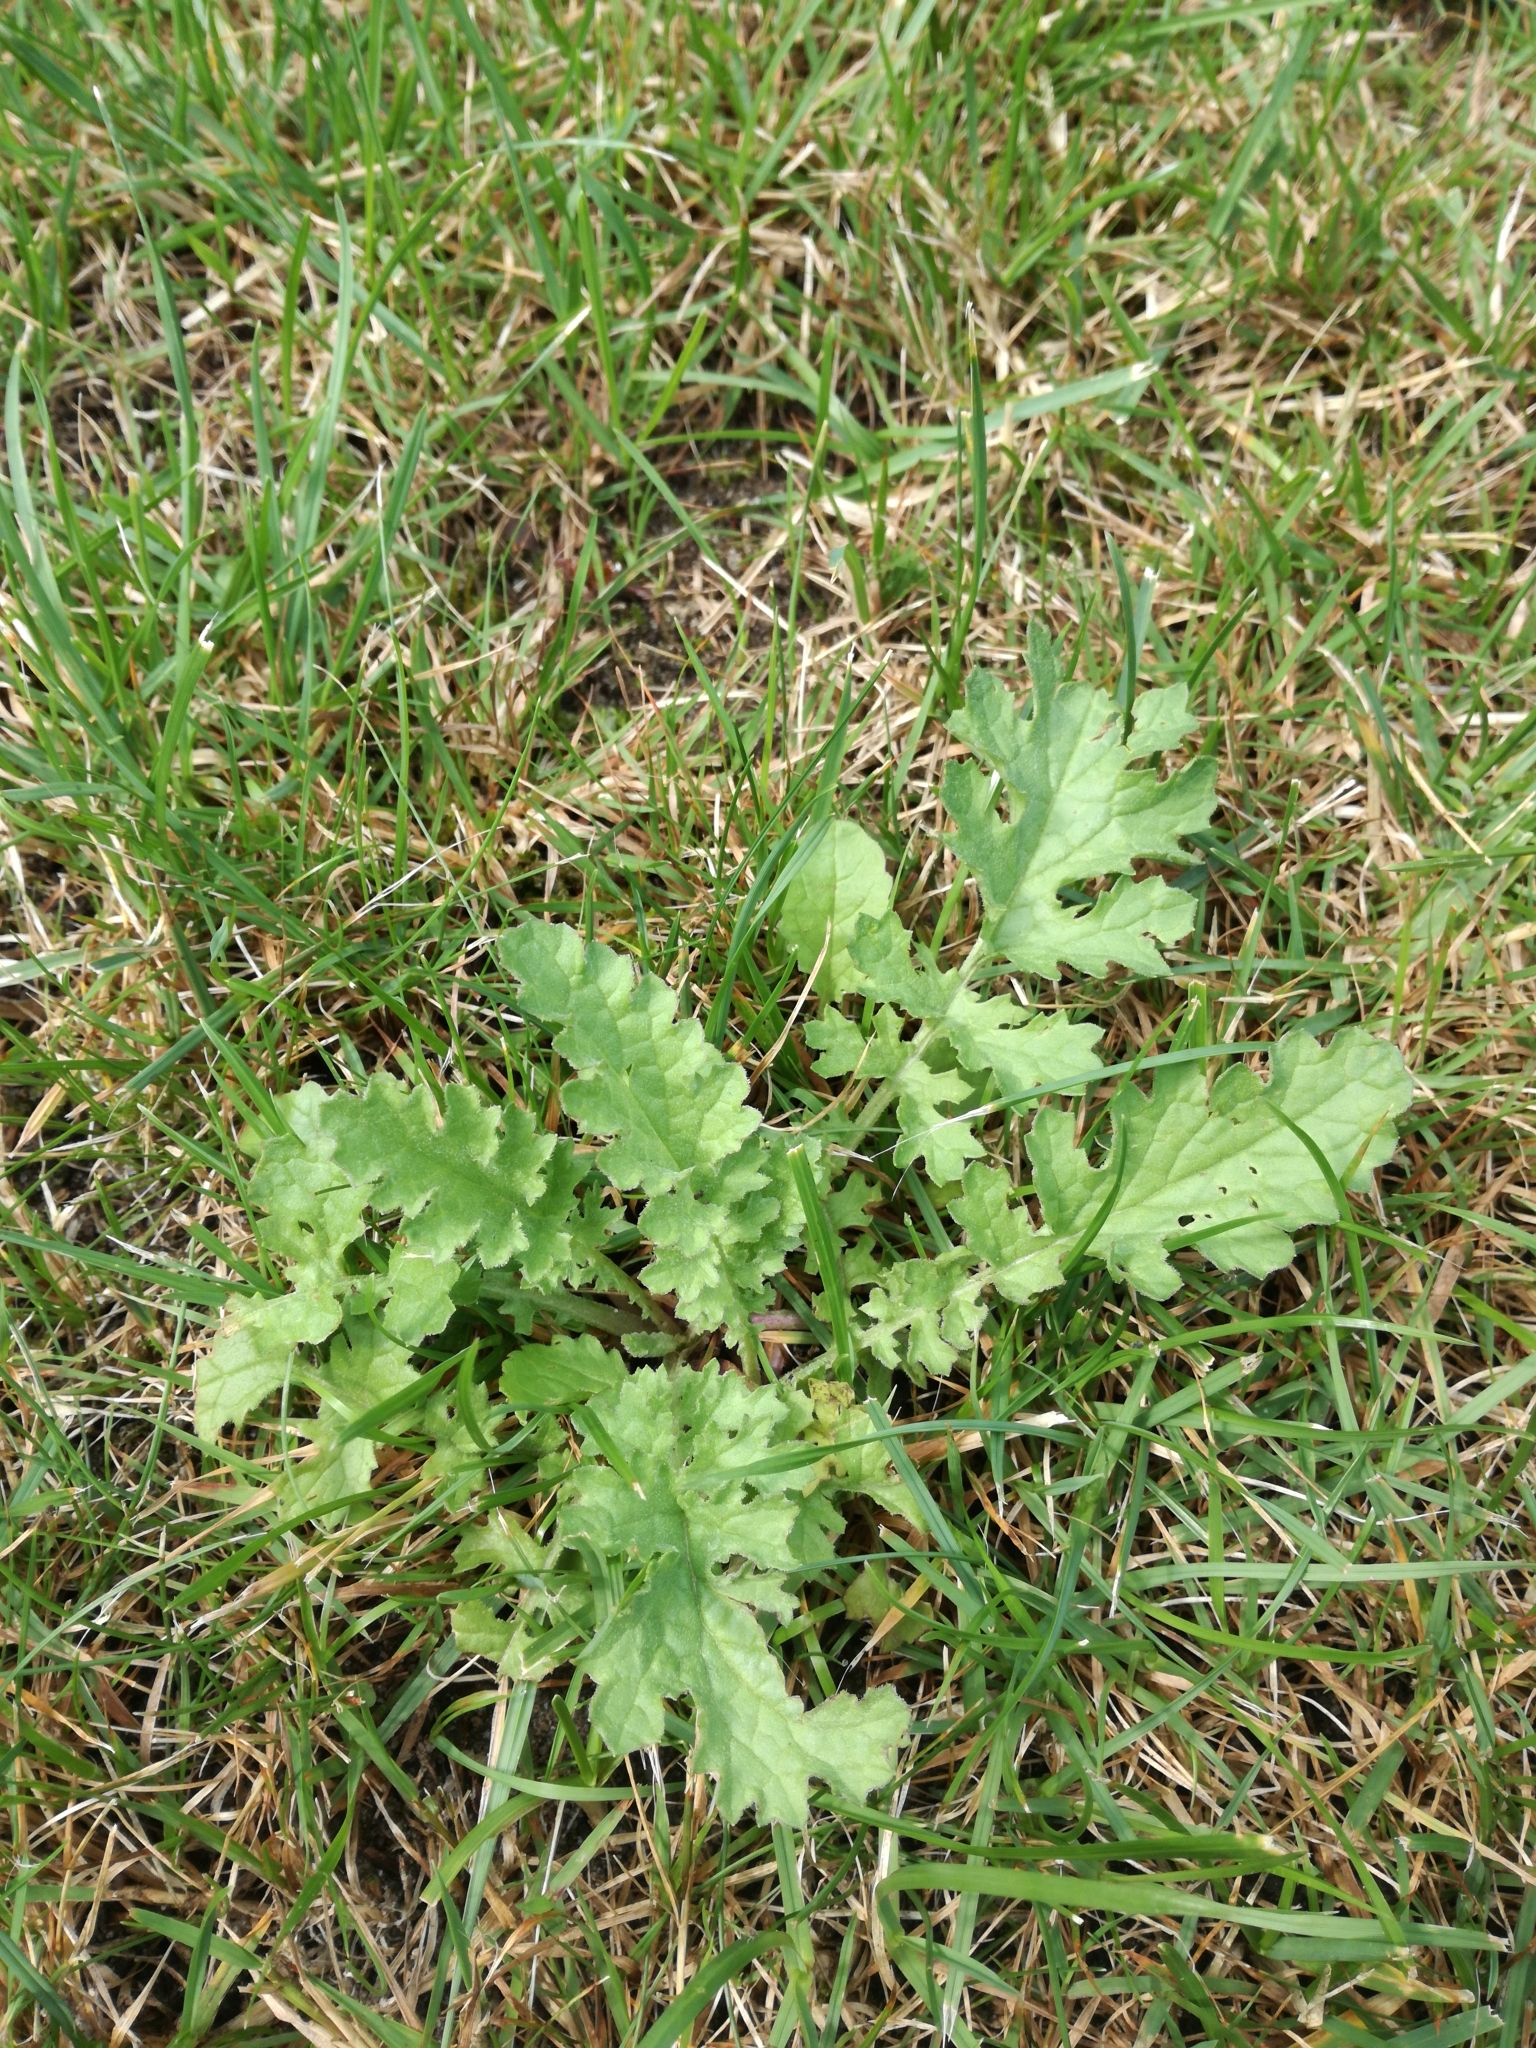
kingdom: Plantae
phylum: Tracheophyta
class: Magnoliopsida
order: Asterales
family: Asteraceae
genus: Jacobaea
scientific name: Jacobaea vulgaris
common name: Stinking willie
